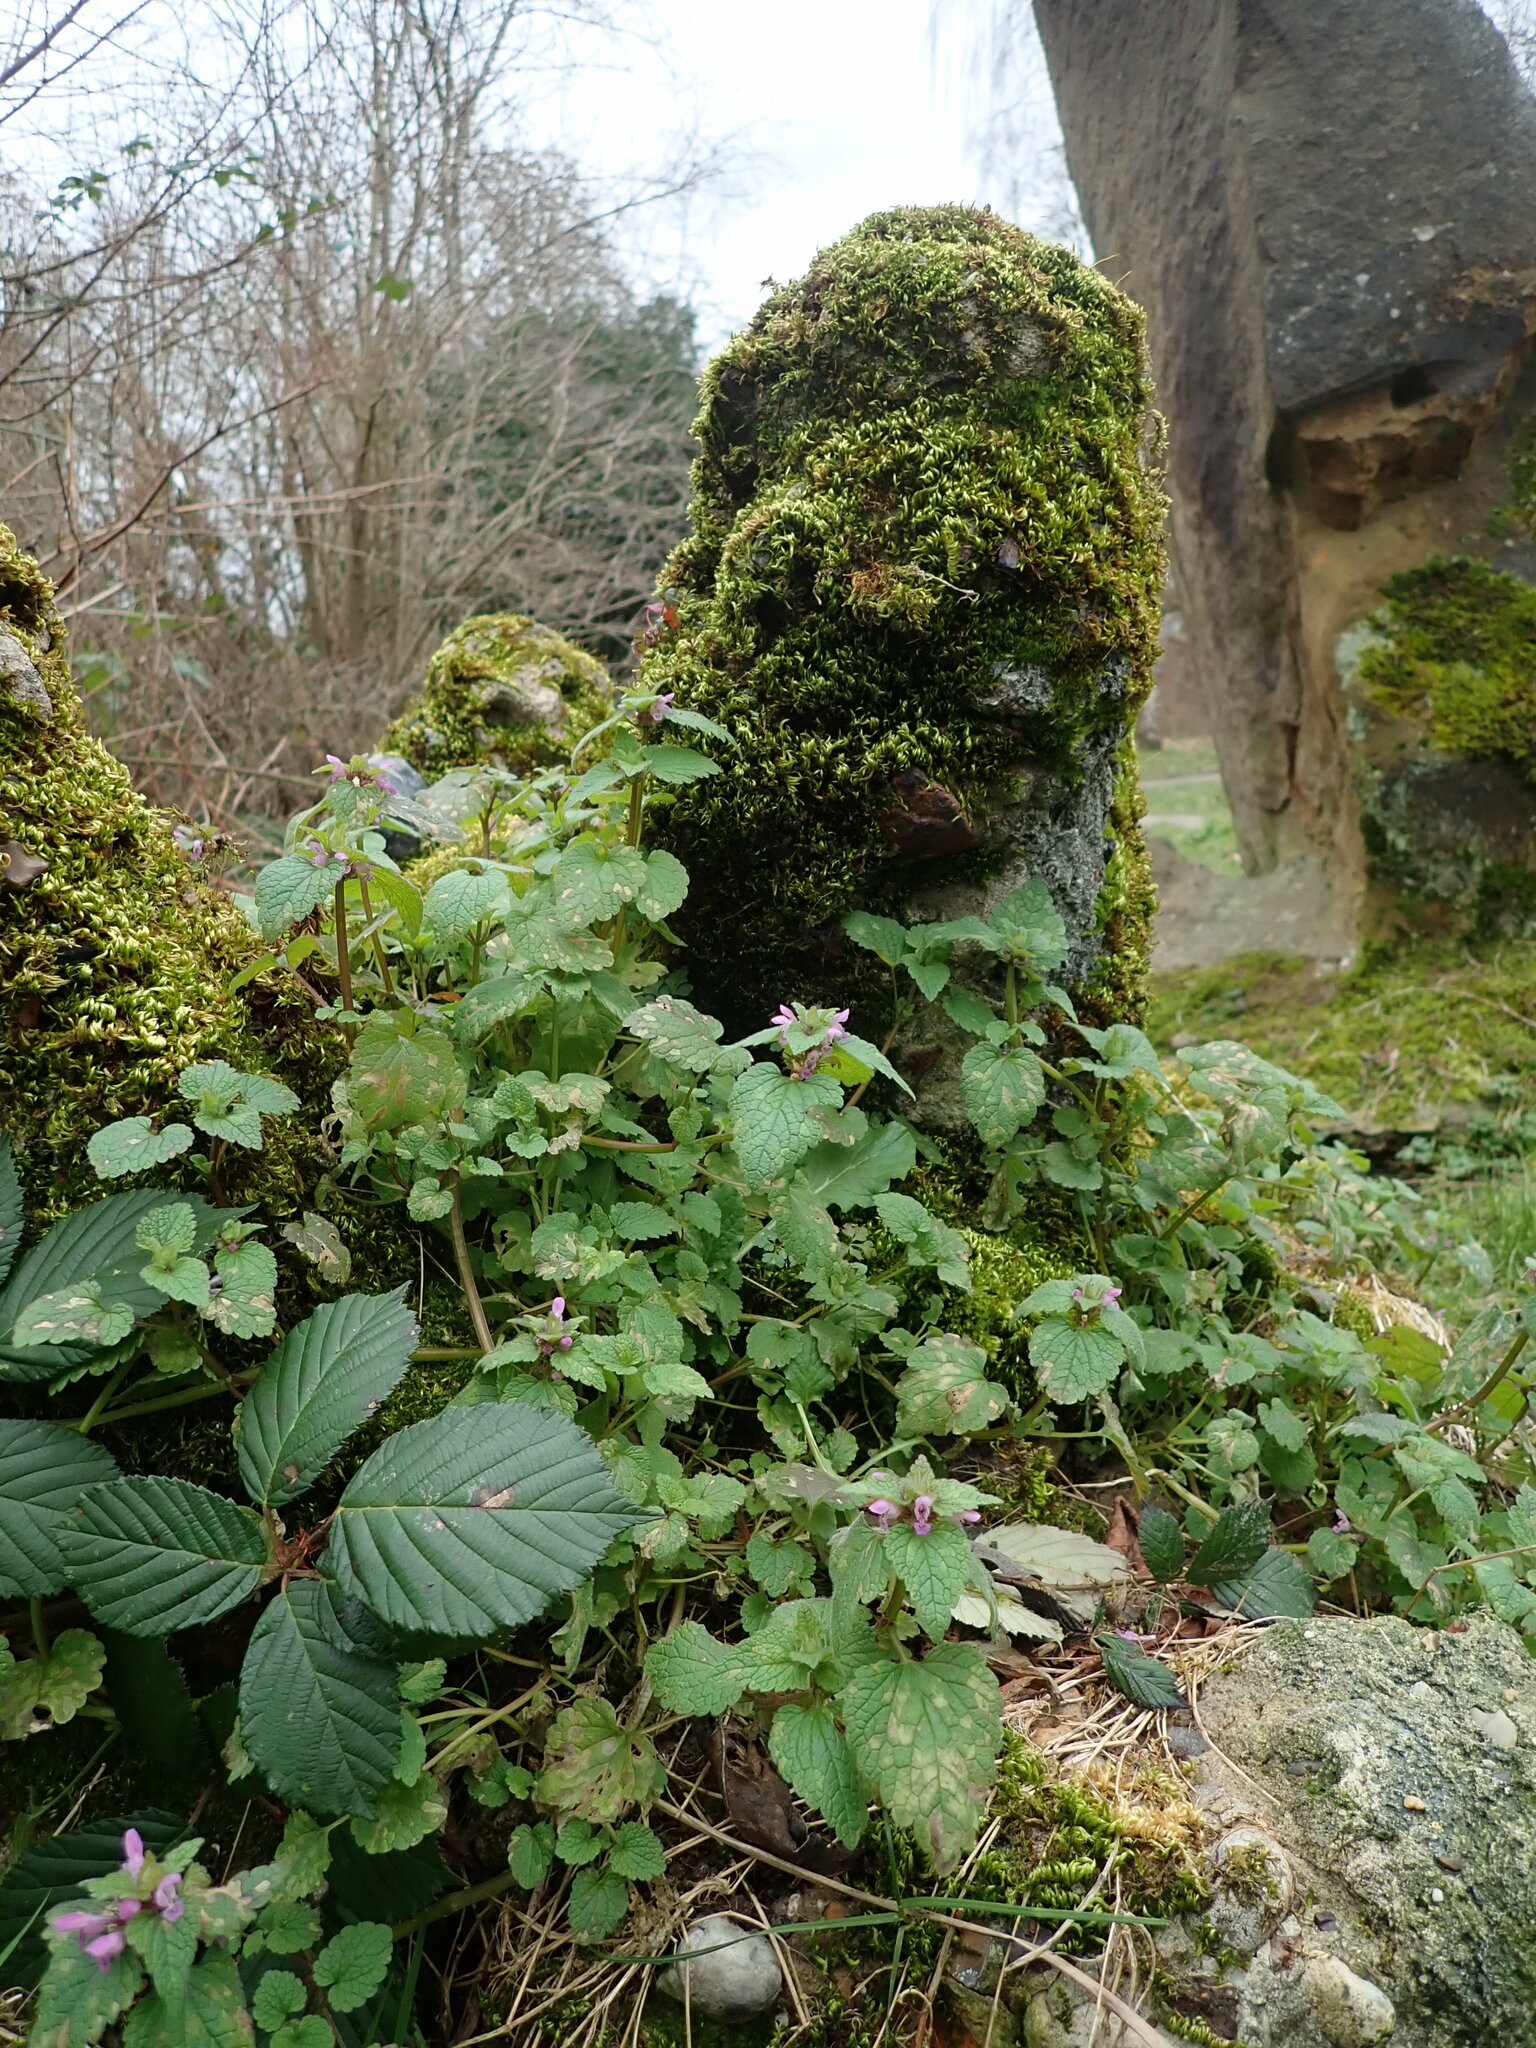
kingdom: Plantae
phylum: Tracheophyta
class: Magnoliopsida
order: Lamiales
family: Lamiaceae
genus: Lamium
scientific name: Lamium purpureum
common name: Red dead-nettle
